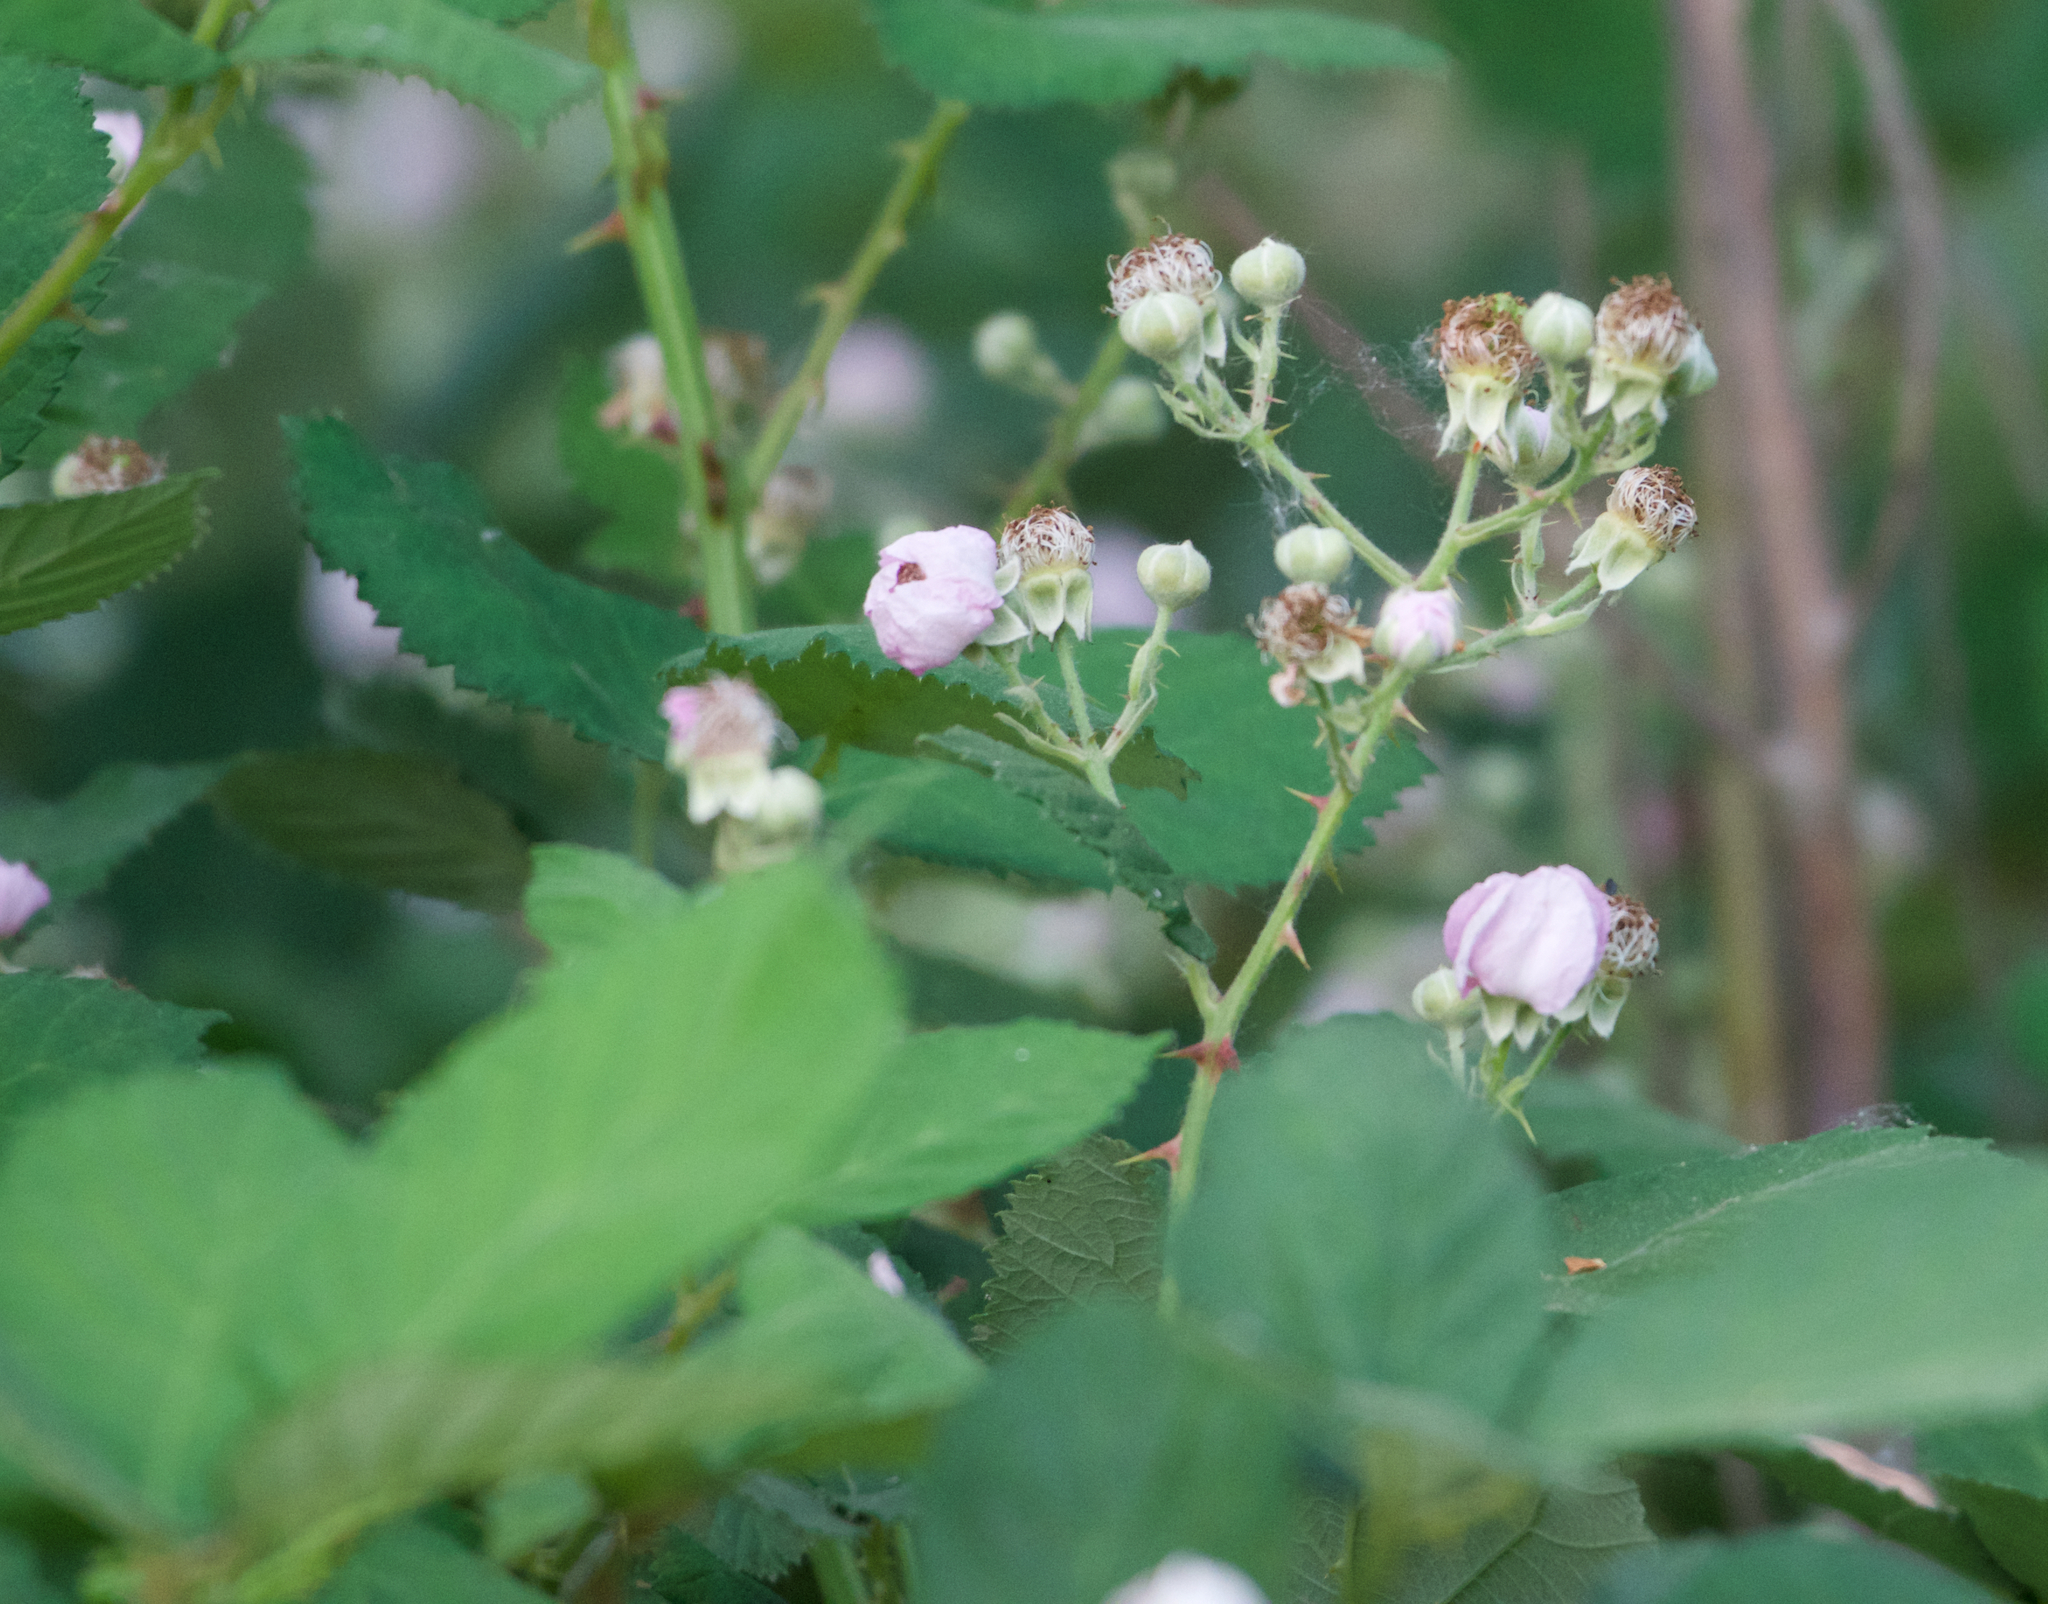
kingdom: Plantae
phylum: Tracheophyta
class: Magnoliopsida
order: Rosales
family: Rosaceae
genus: Rubus
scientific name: Rubus armeniacus
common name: Himalayan blackberry
